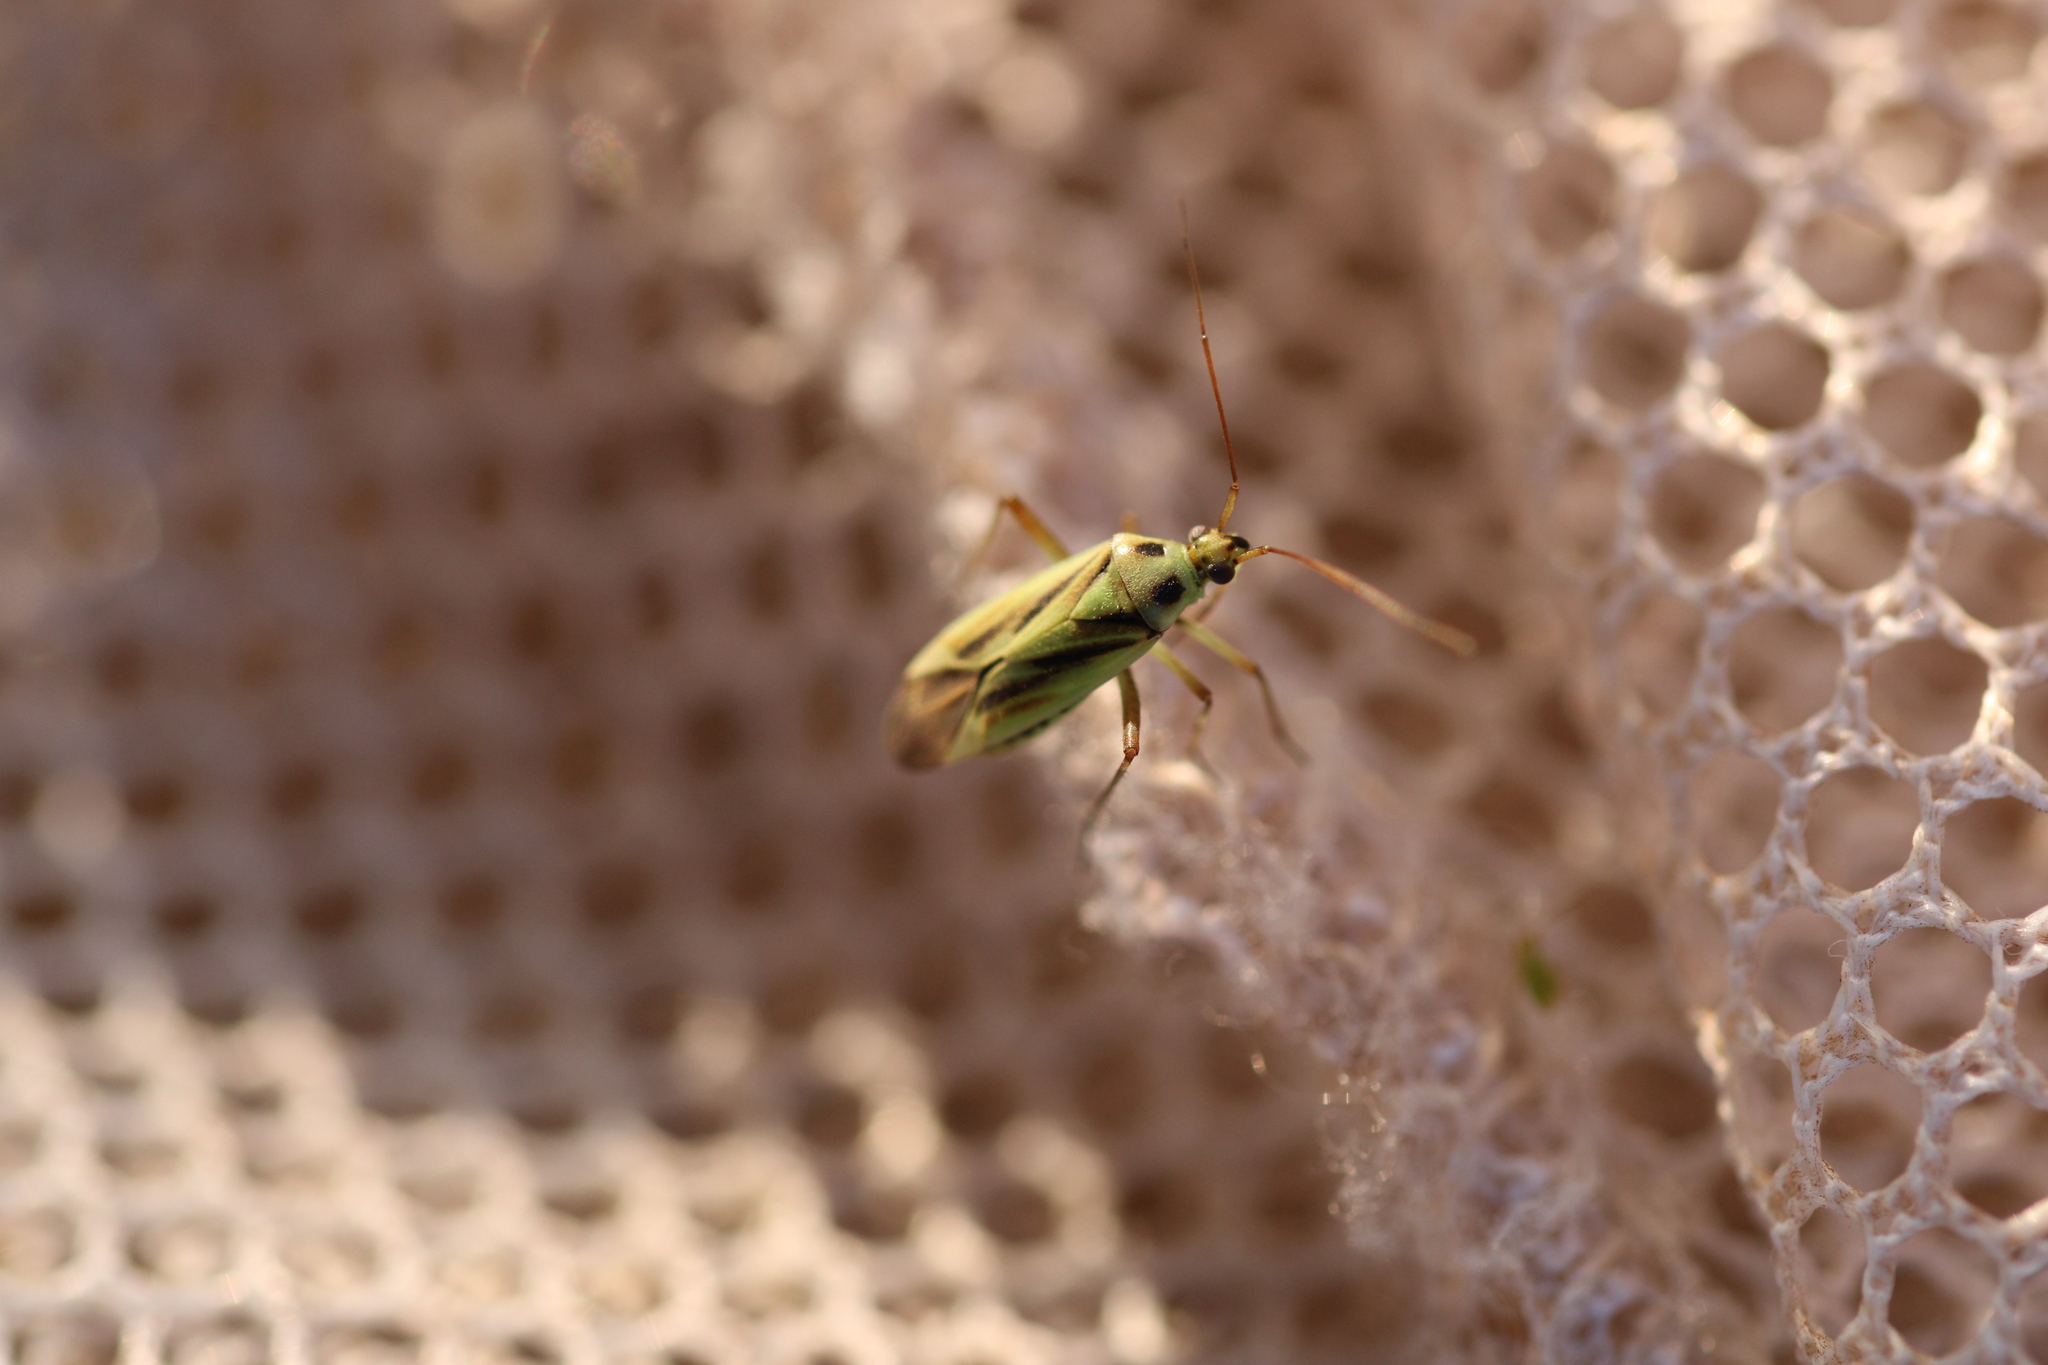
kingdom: Animalia
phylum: Arthropoda
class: Insecta
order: Hemiptera
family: Miridae
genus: Stenotus
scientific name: Stenotus binotatus
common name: Plant bug
